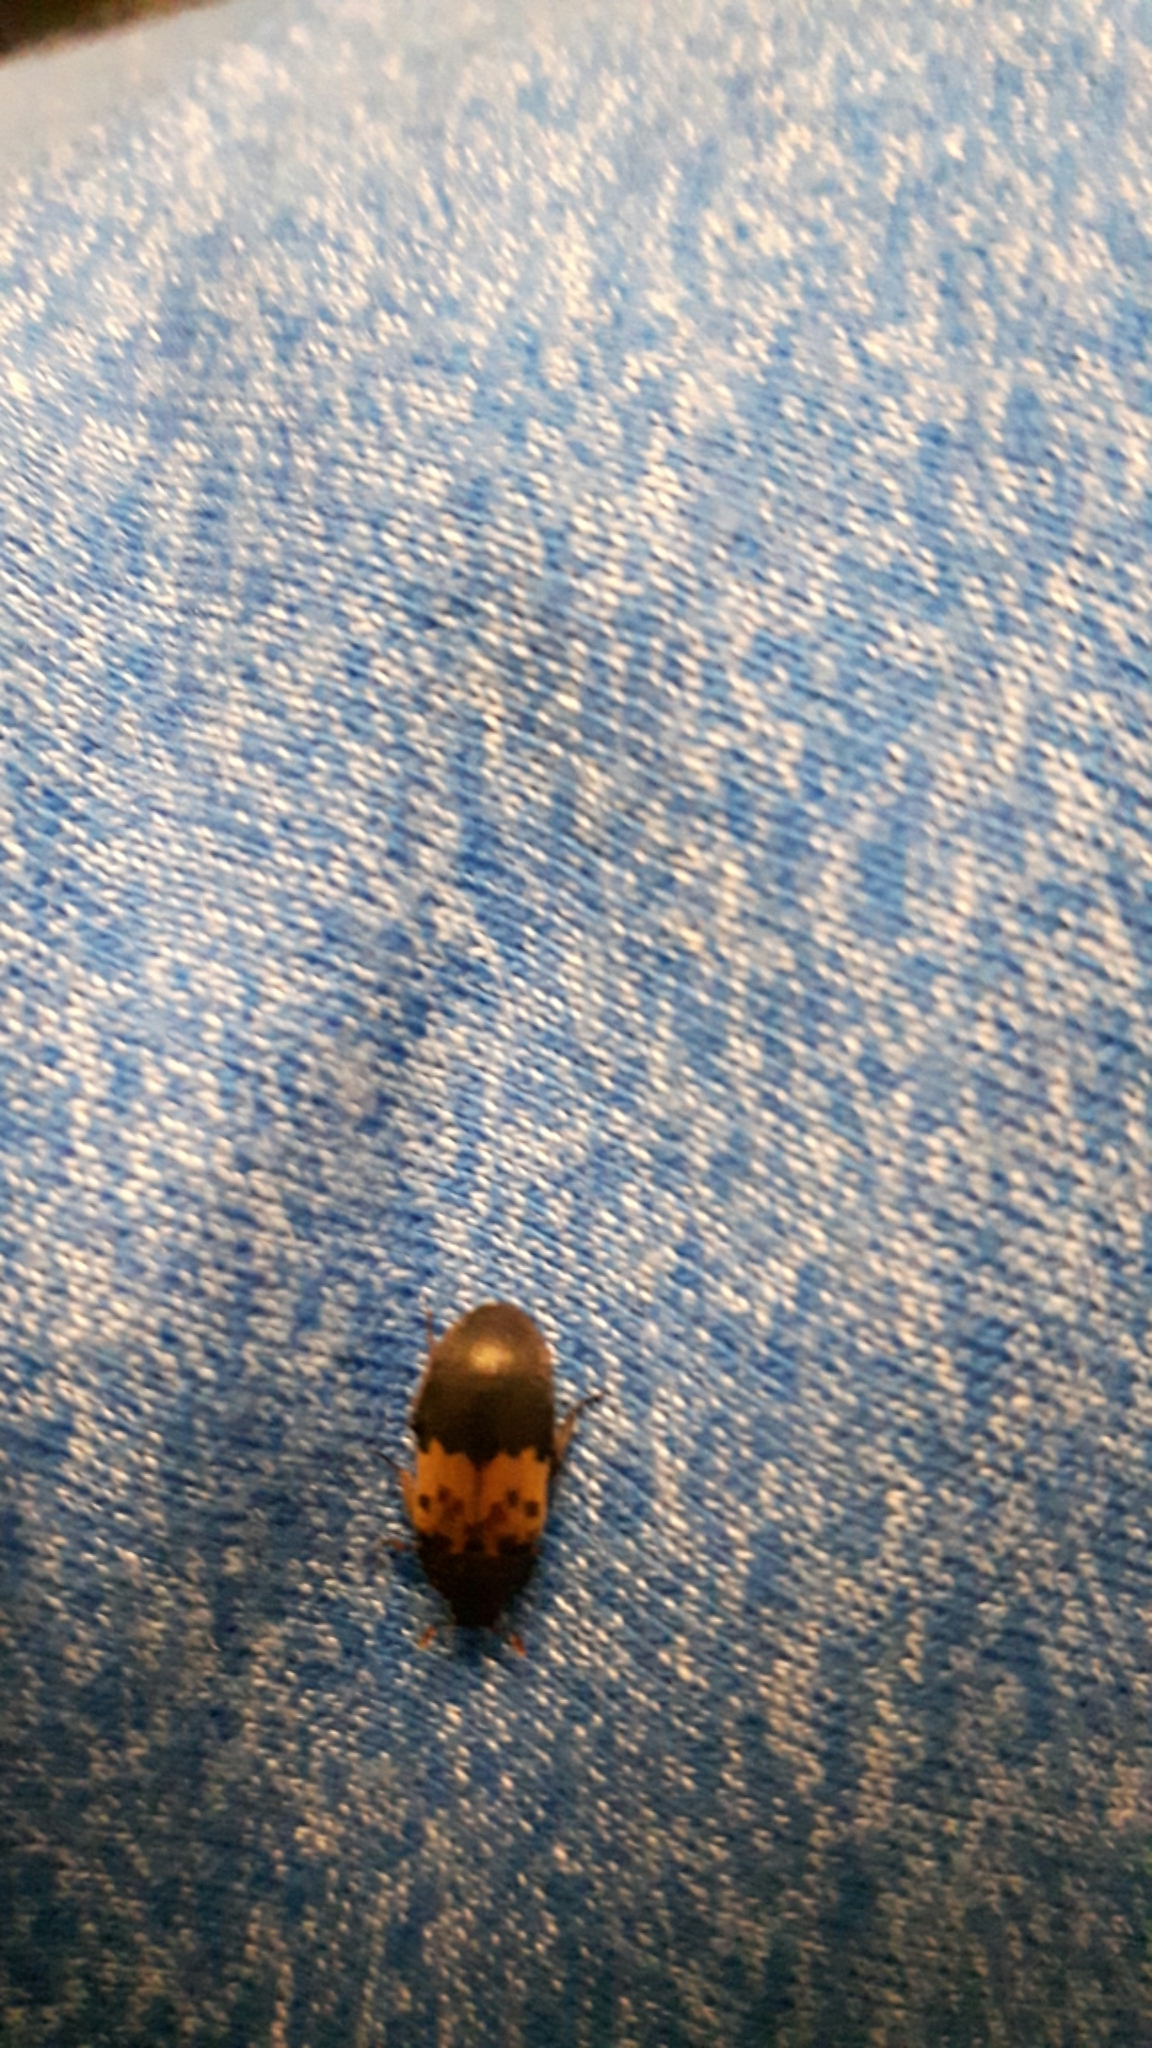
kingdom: Animalia
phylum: Arthropoda
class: Insecta
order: Coleoptera
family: Dermestidae
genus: Dermestes
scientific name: Dermestes lardarius
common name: Larder beetle
